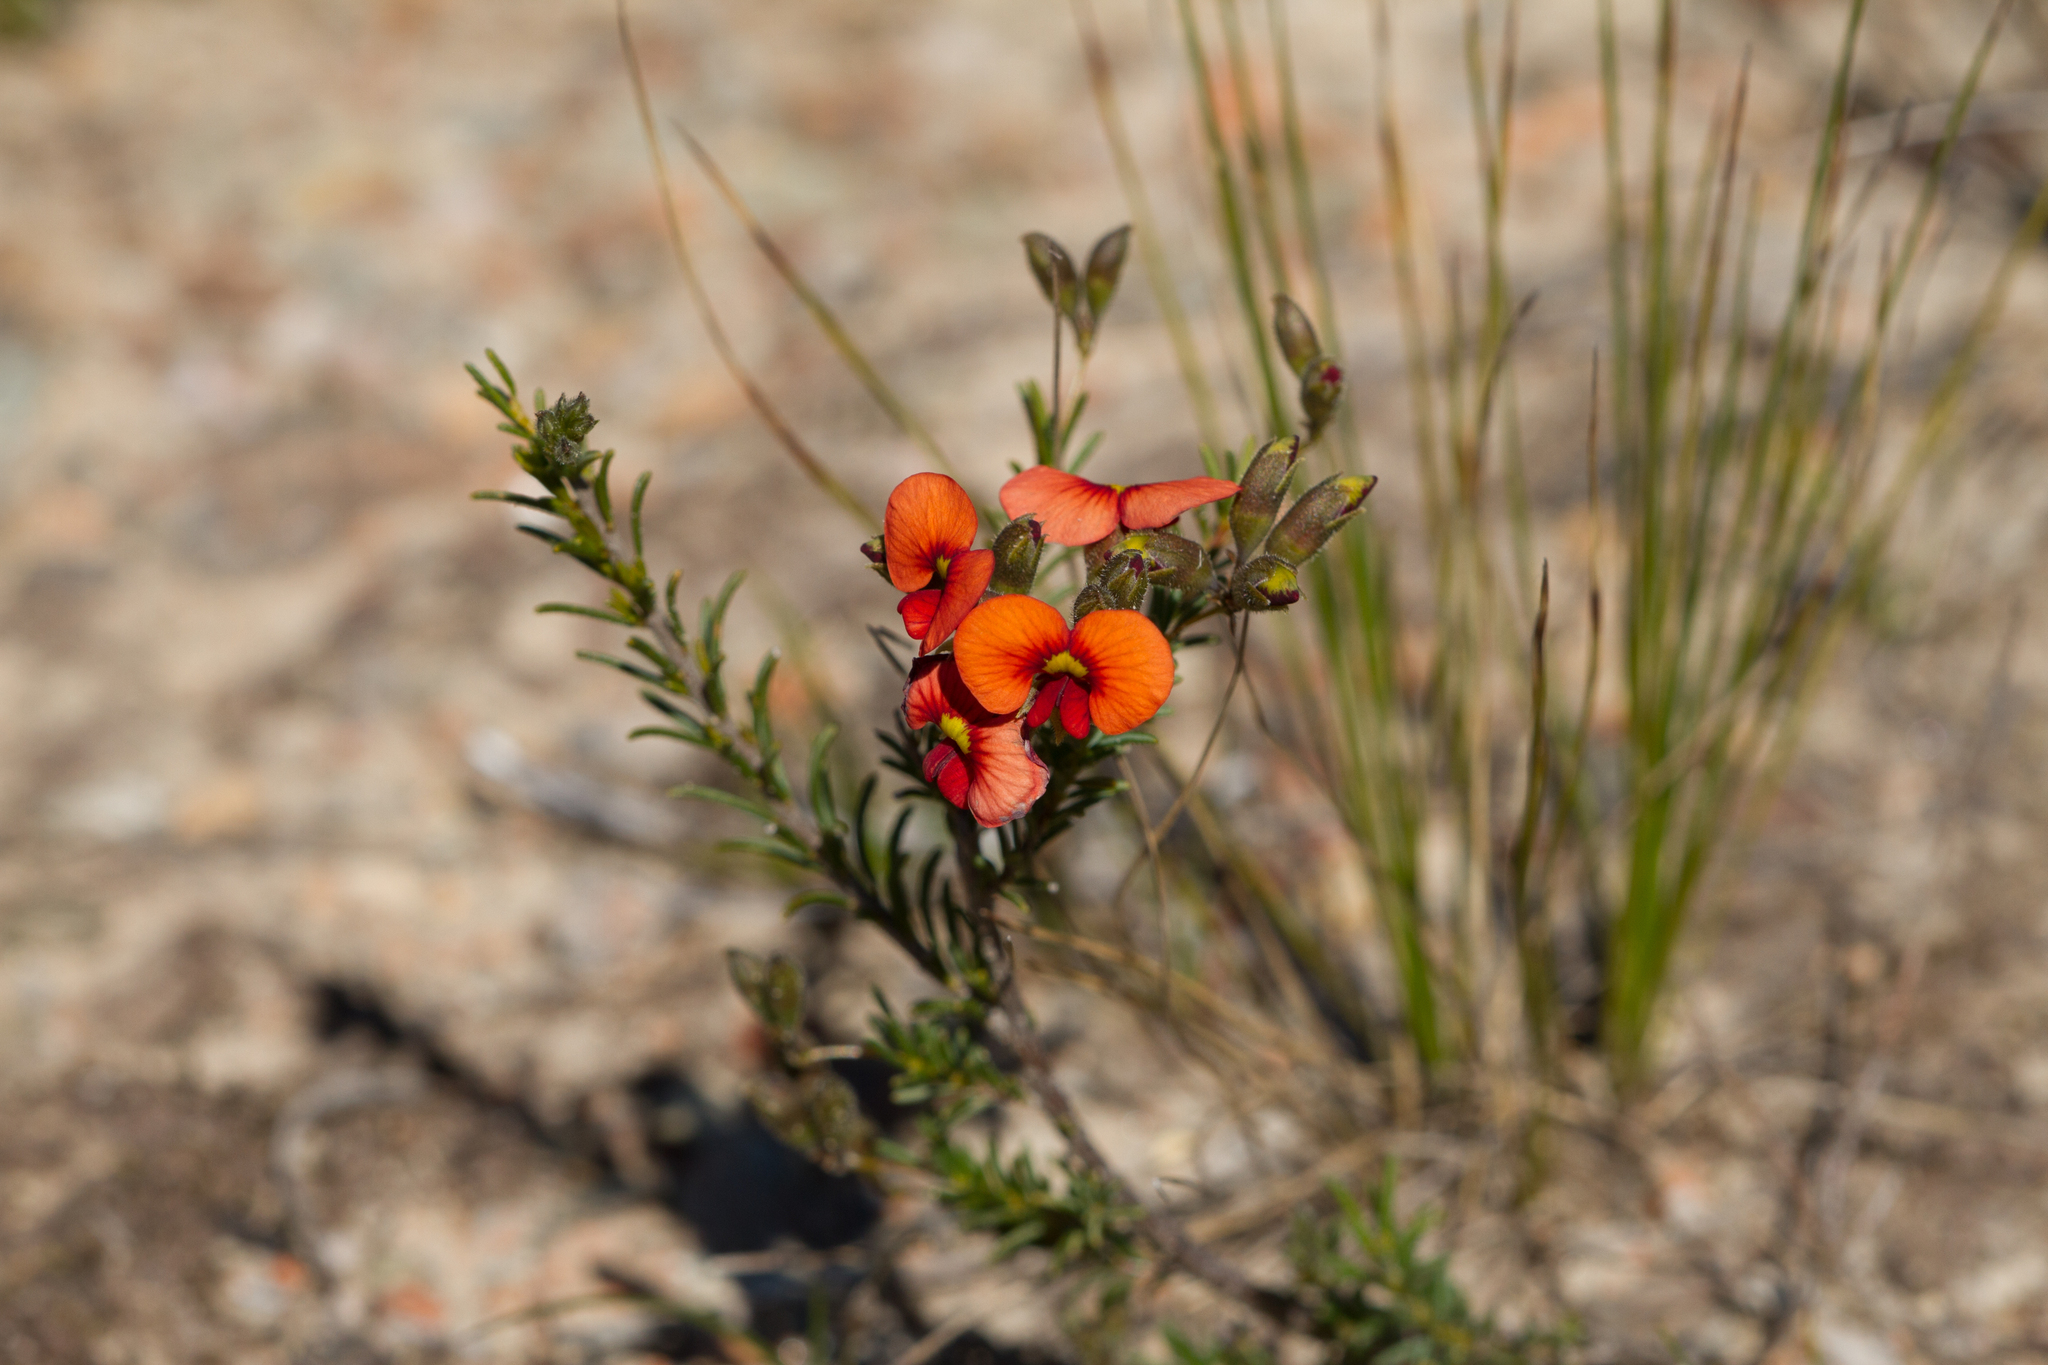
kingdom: Plantae
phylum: Tracheophyta
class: Magnoliopsida
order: Fabales
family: Fabaceae
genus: Dillwynia
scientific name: Dillwynia hispida
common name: Red parrot-pea
